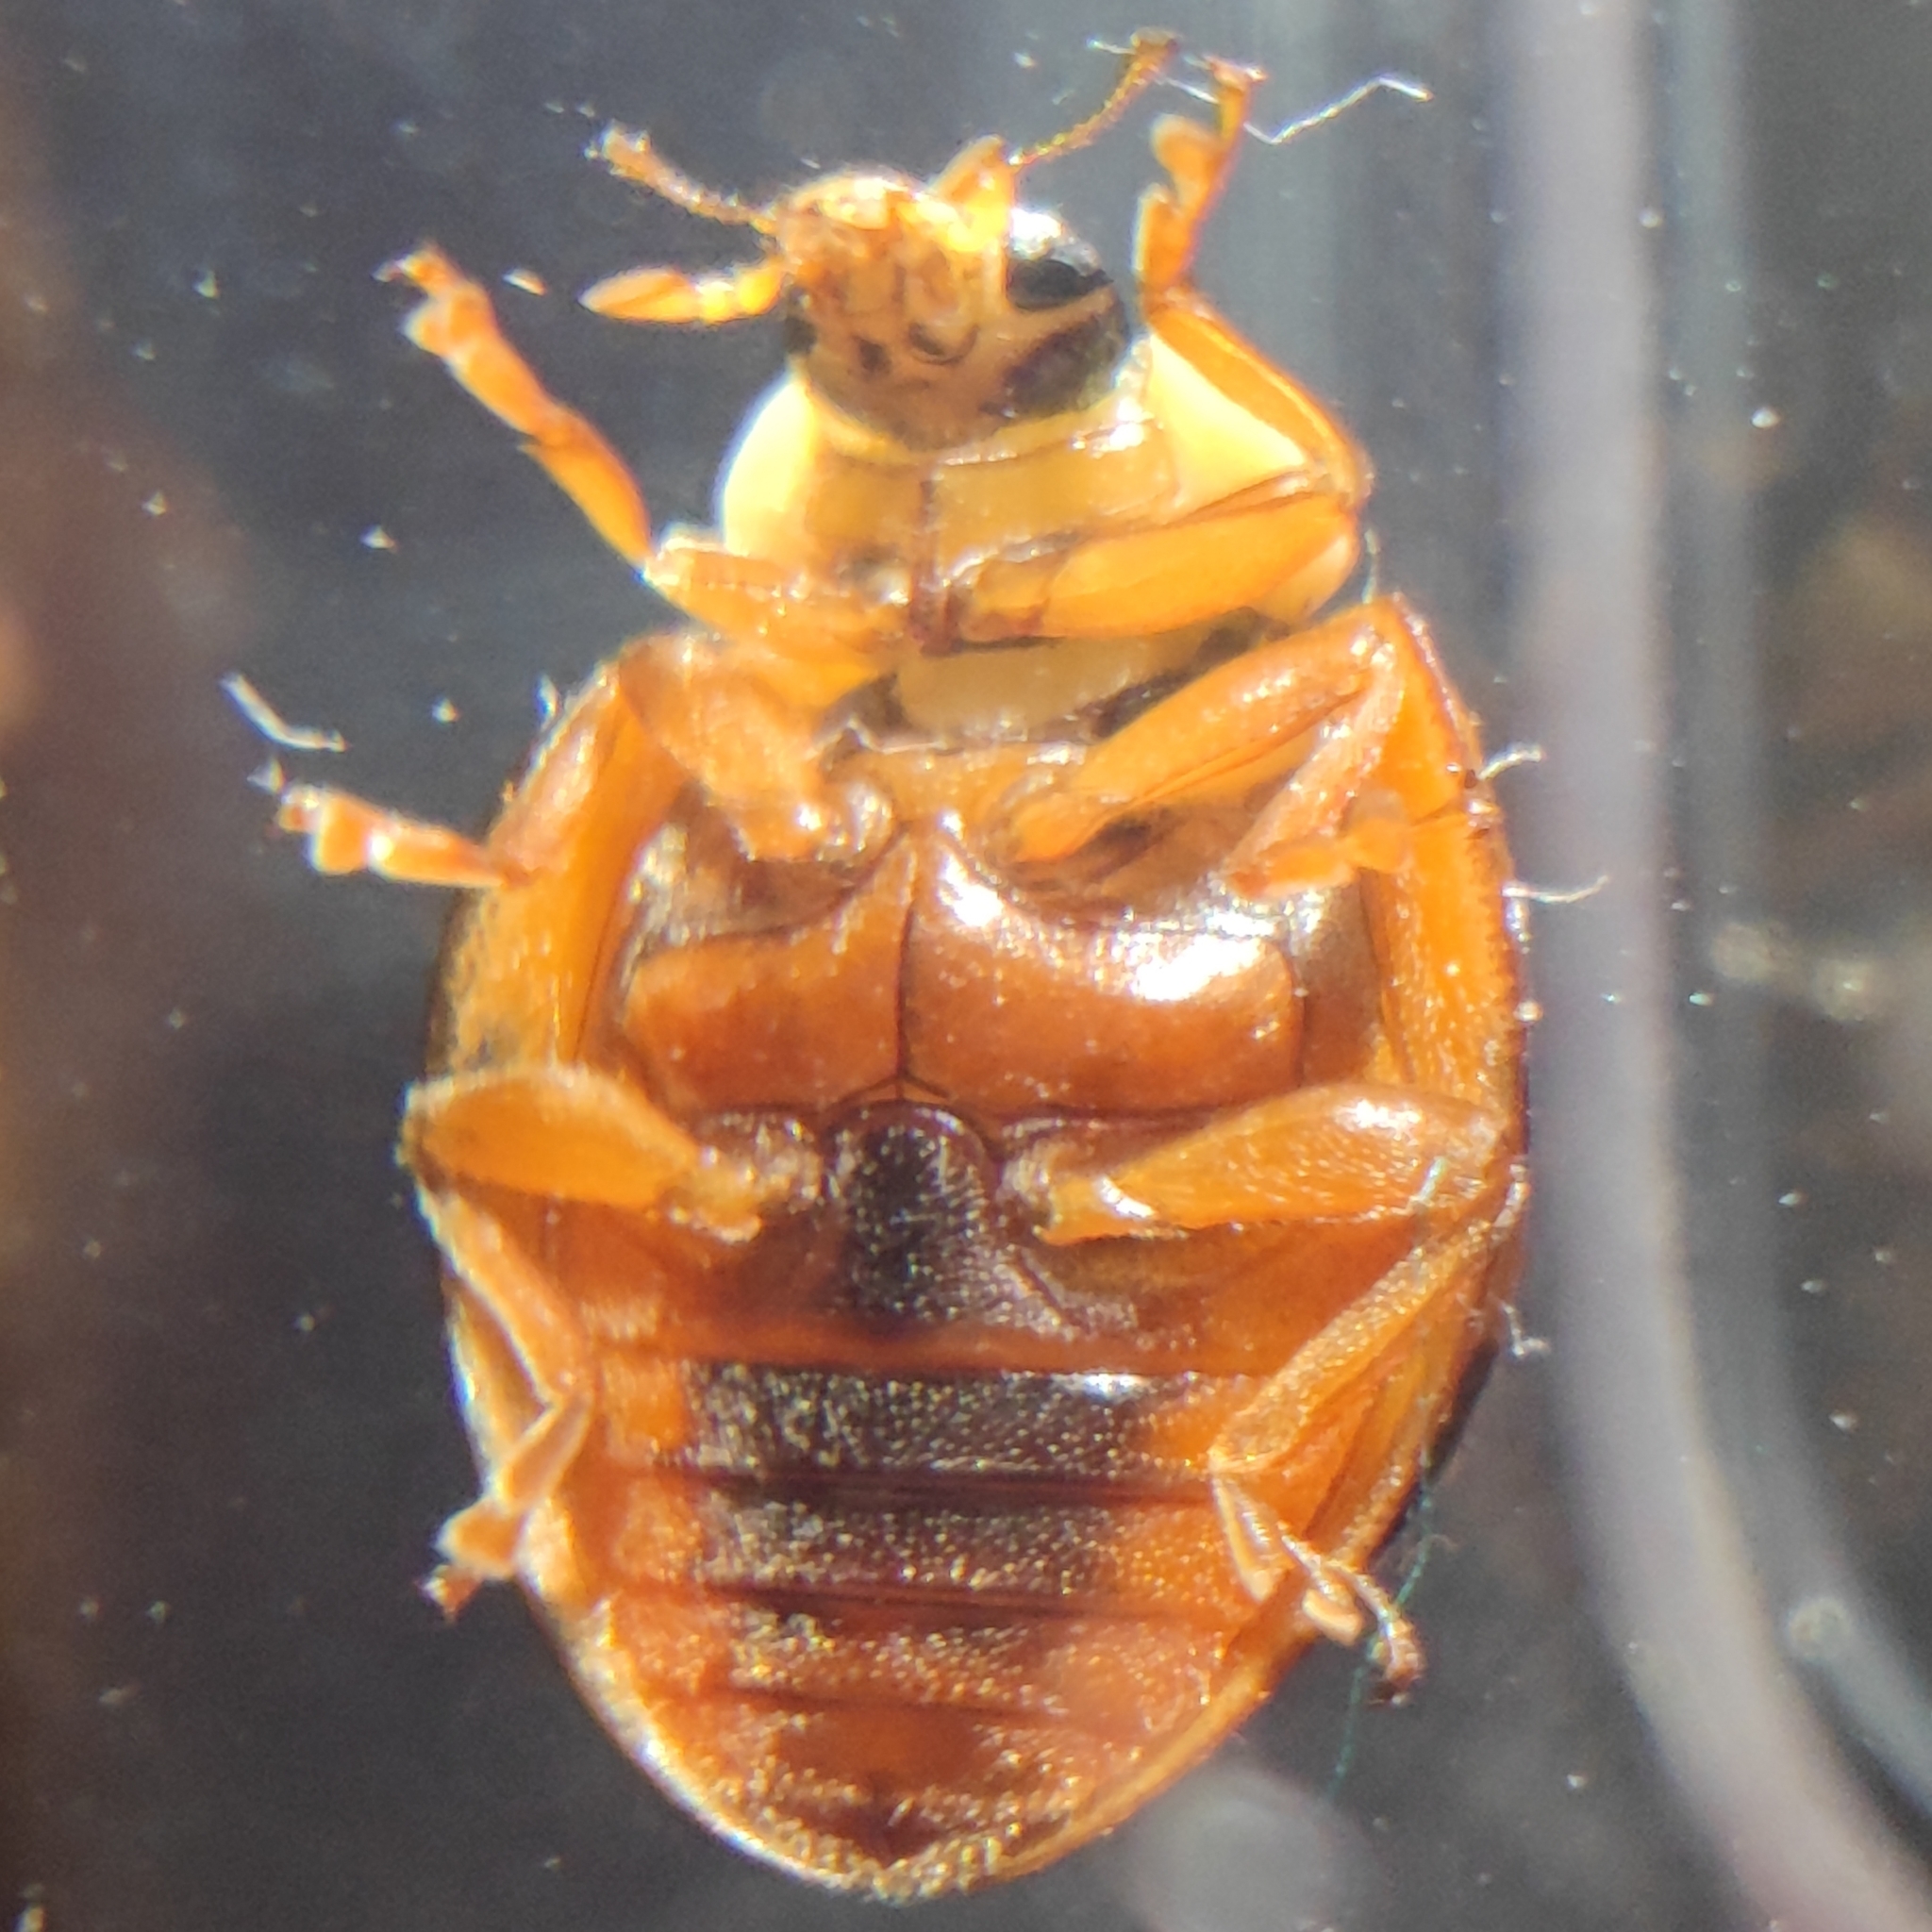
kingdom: Animalia
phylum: Arthropoda
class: Insecta
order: Coleoptera
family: Coccinellidae
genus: Harmonia
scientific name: Harmonia axyridis
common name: Harlequin ladybird
